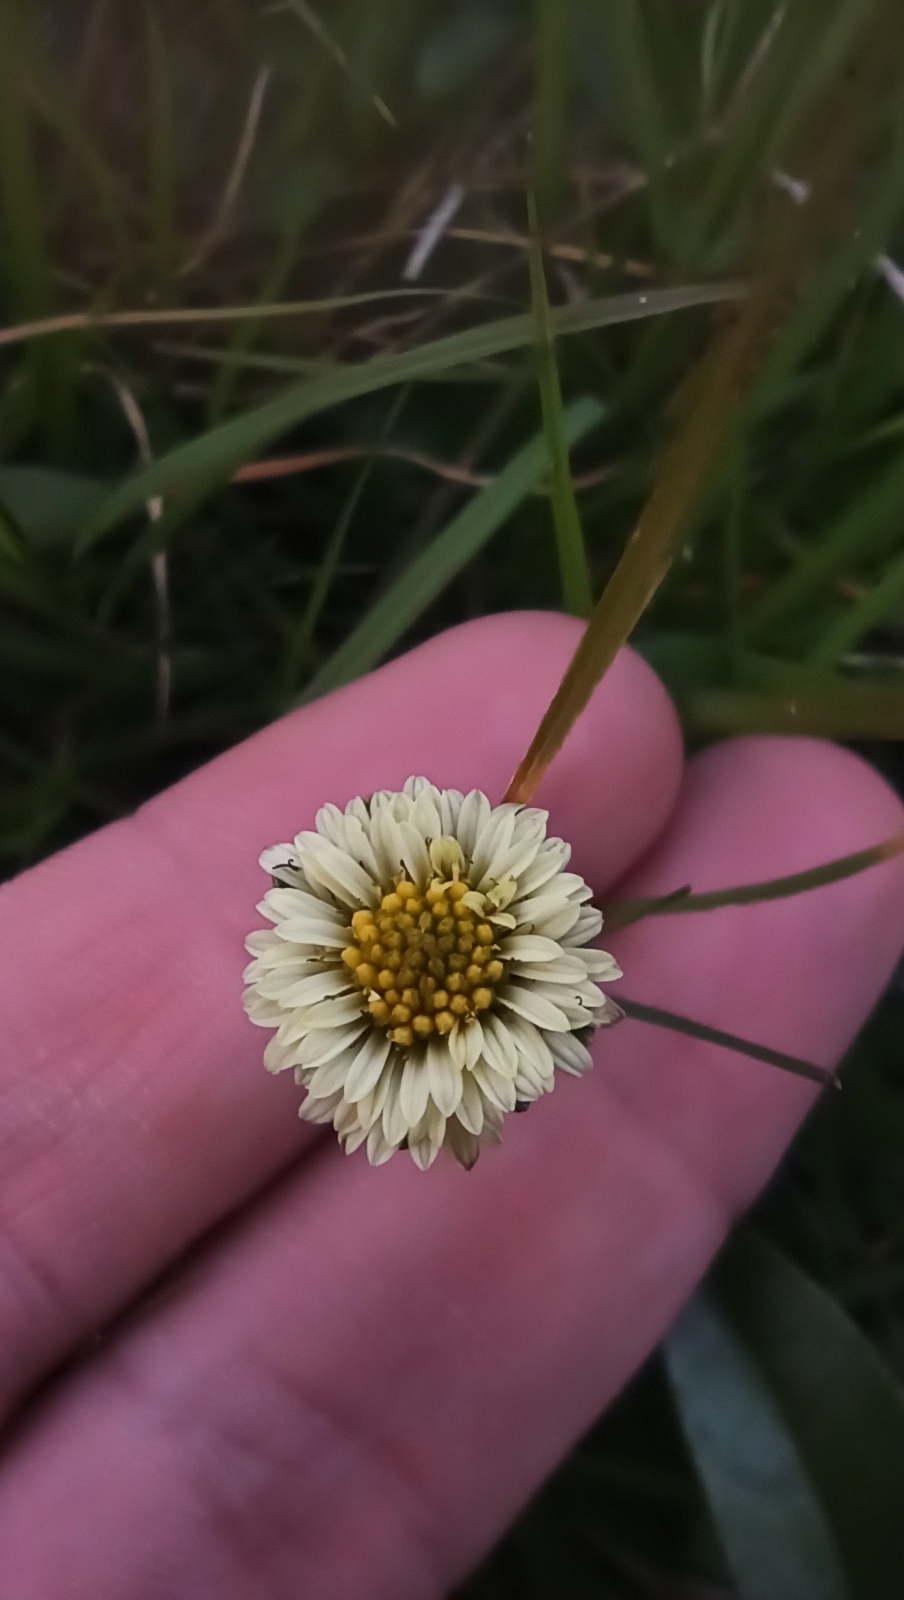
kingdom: Plantae
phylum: Tracheophyta
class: Magnoliopsida
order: Asterales
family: Asteraceae
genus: Eclipta
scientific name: Eclipta elliptica
